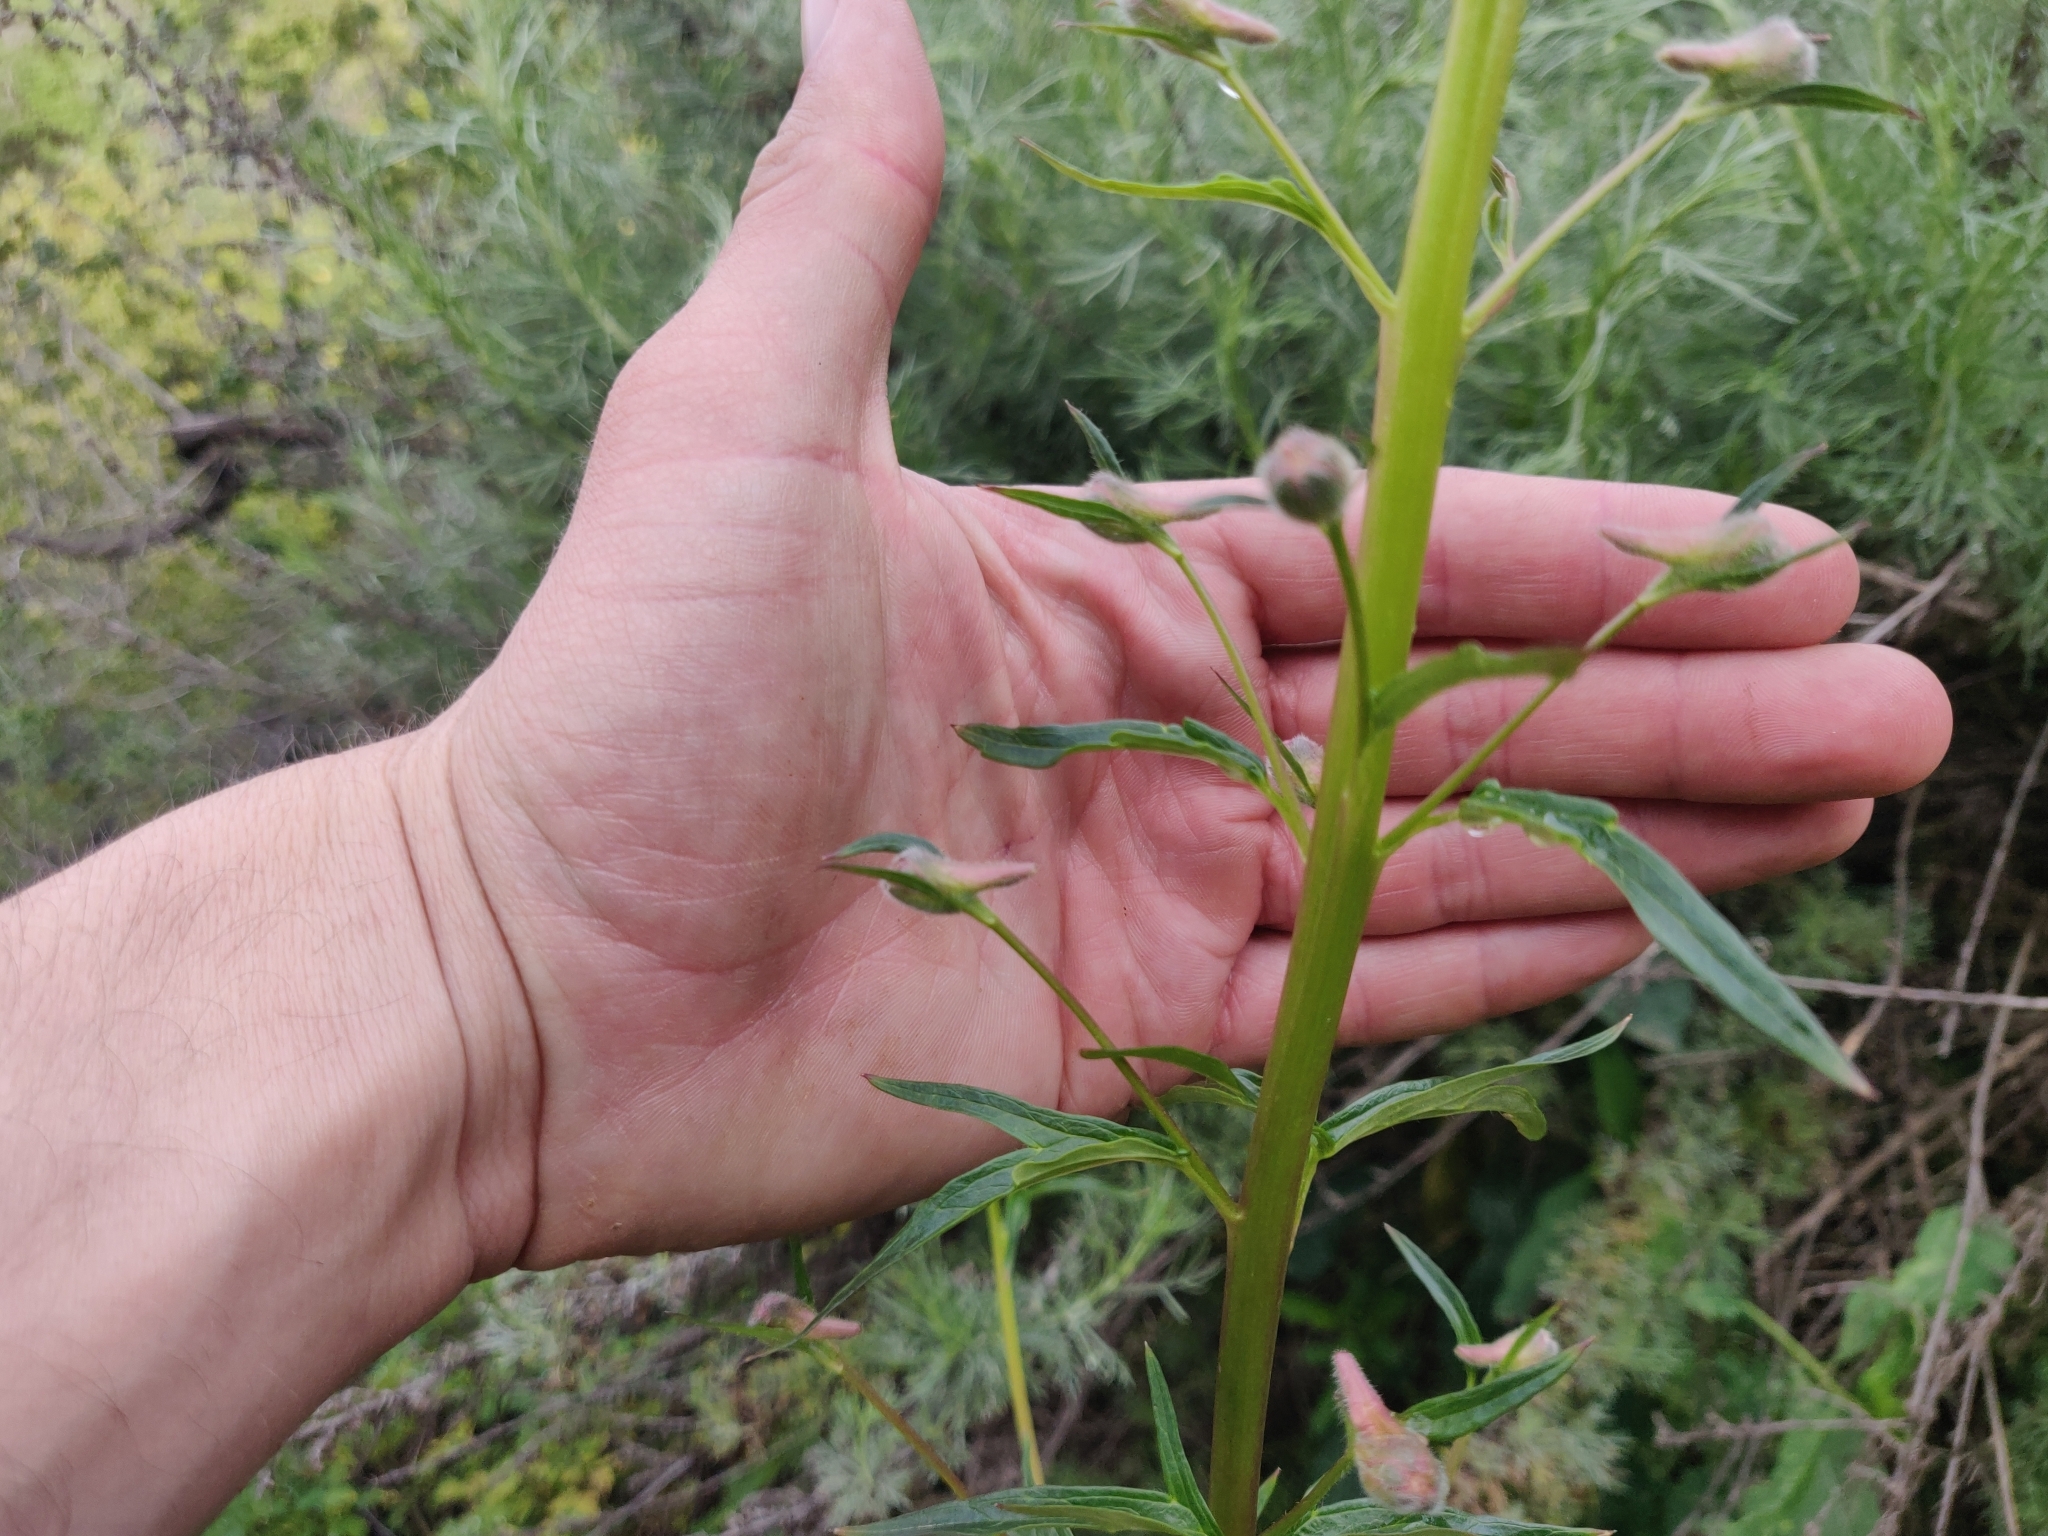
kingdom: Plantae
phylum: Tracheophyta
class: Magnoliopsida
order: Ranunculales
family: Ranunculaceae
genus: Delphinium
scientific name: Delphinium californicum
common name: California larkspur
